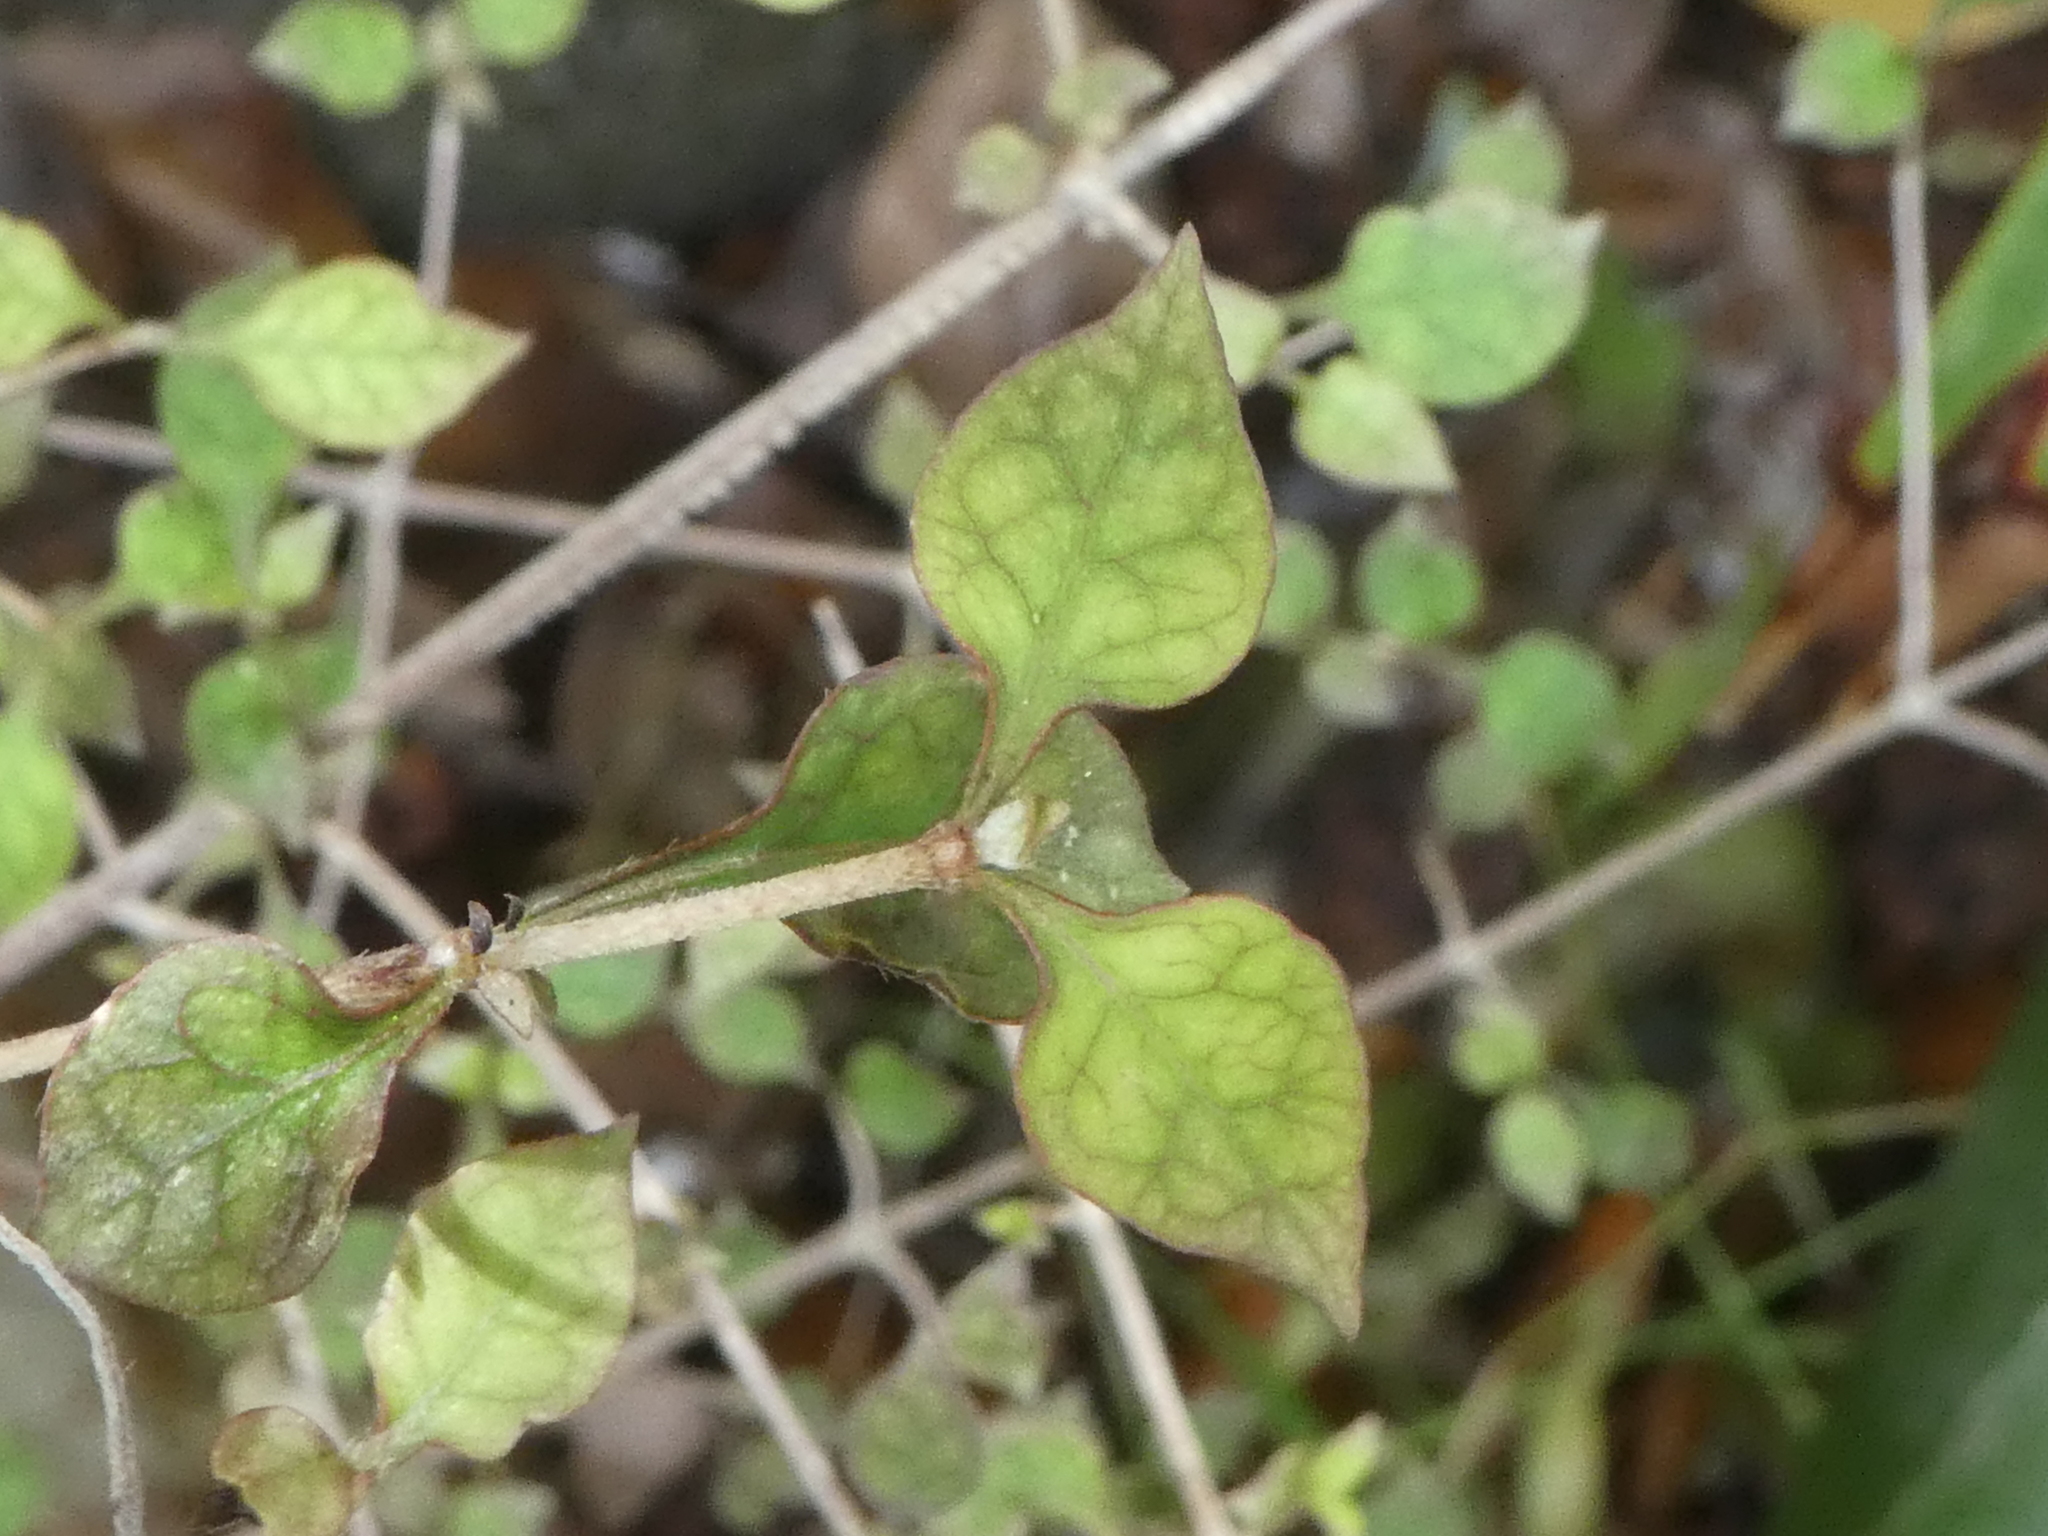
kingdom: Plantae
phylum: Tracheophyta
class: Magnoliopsida
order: Gentianales
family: Rubiaceae
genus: Coprosma
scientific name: Coprosma areolata
